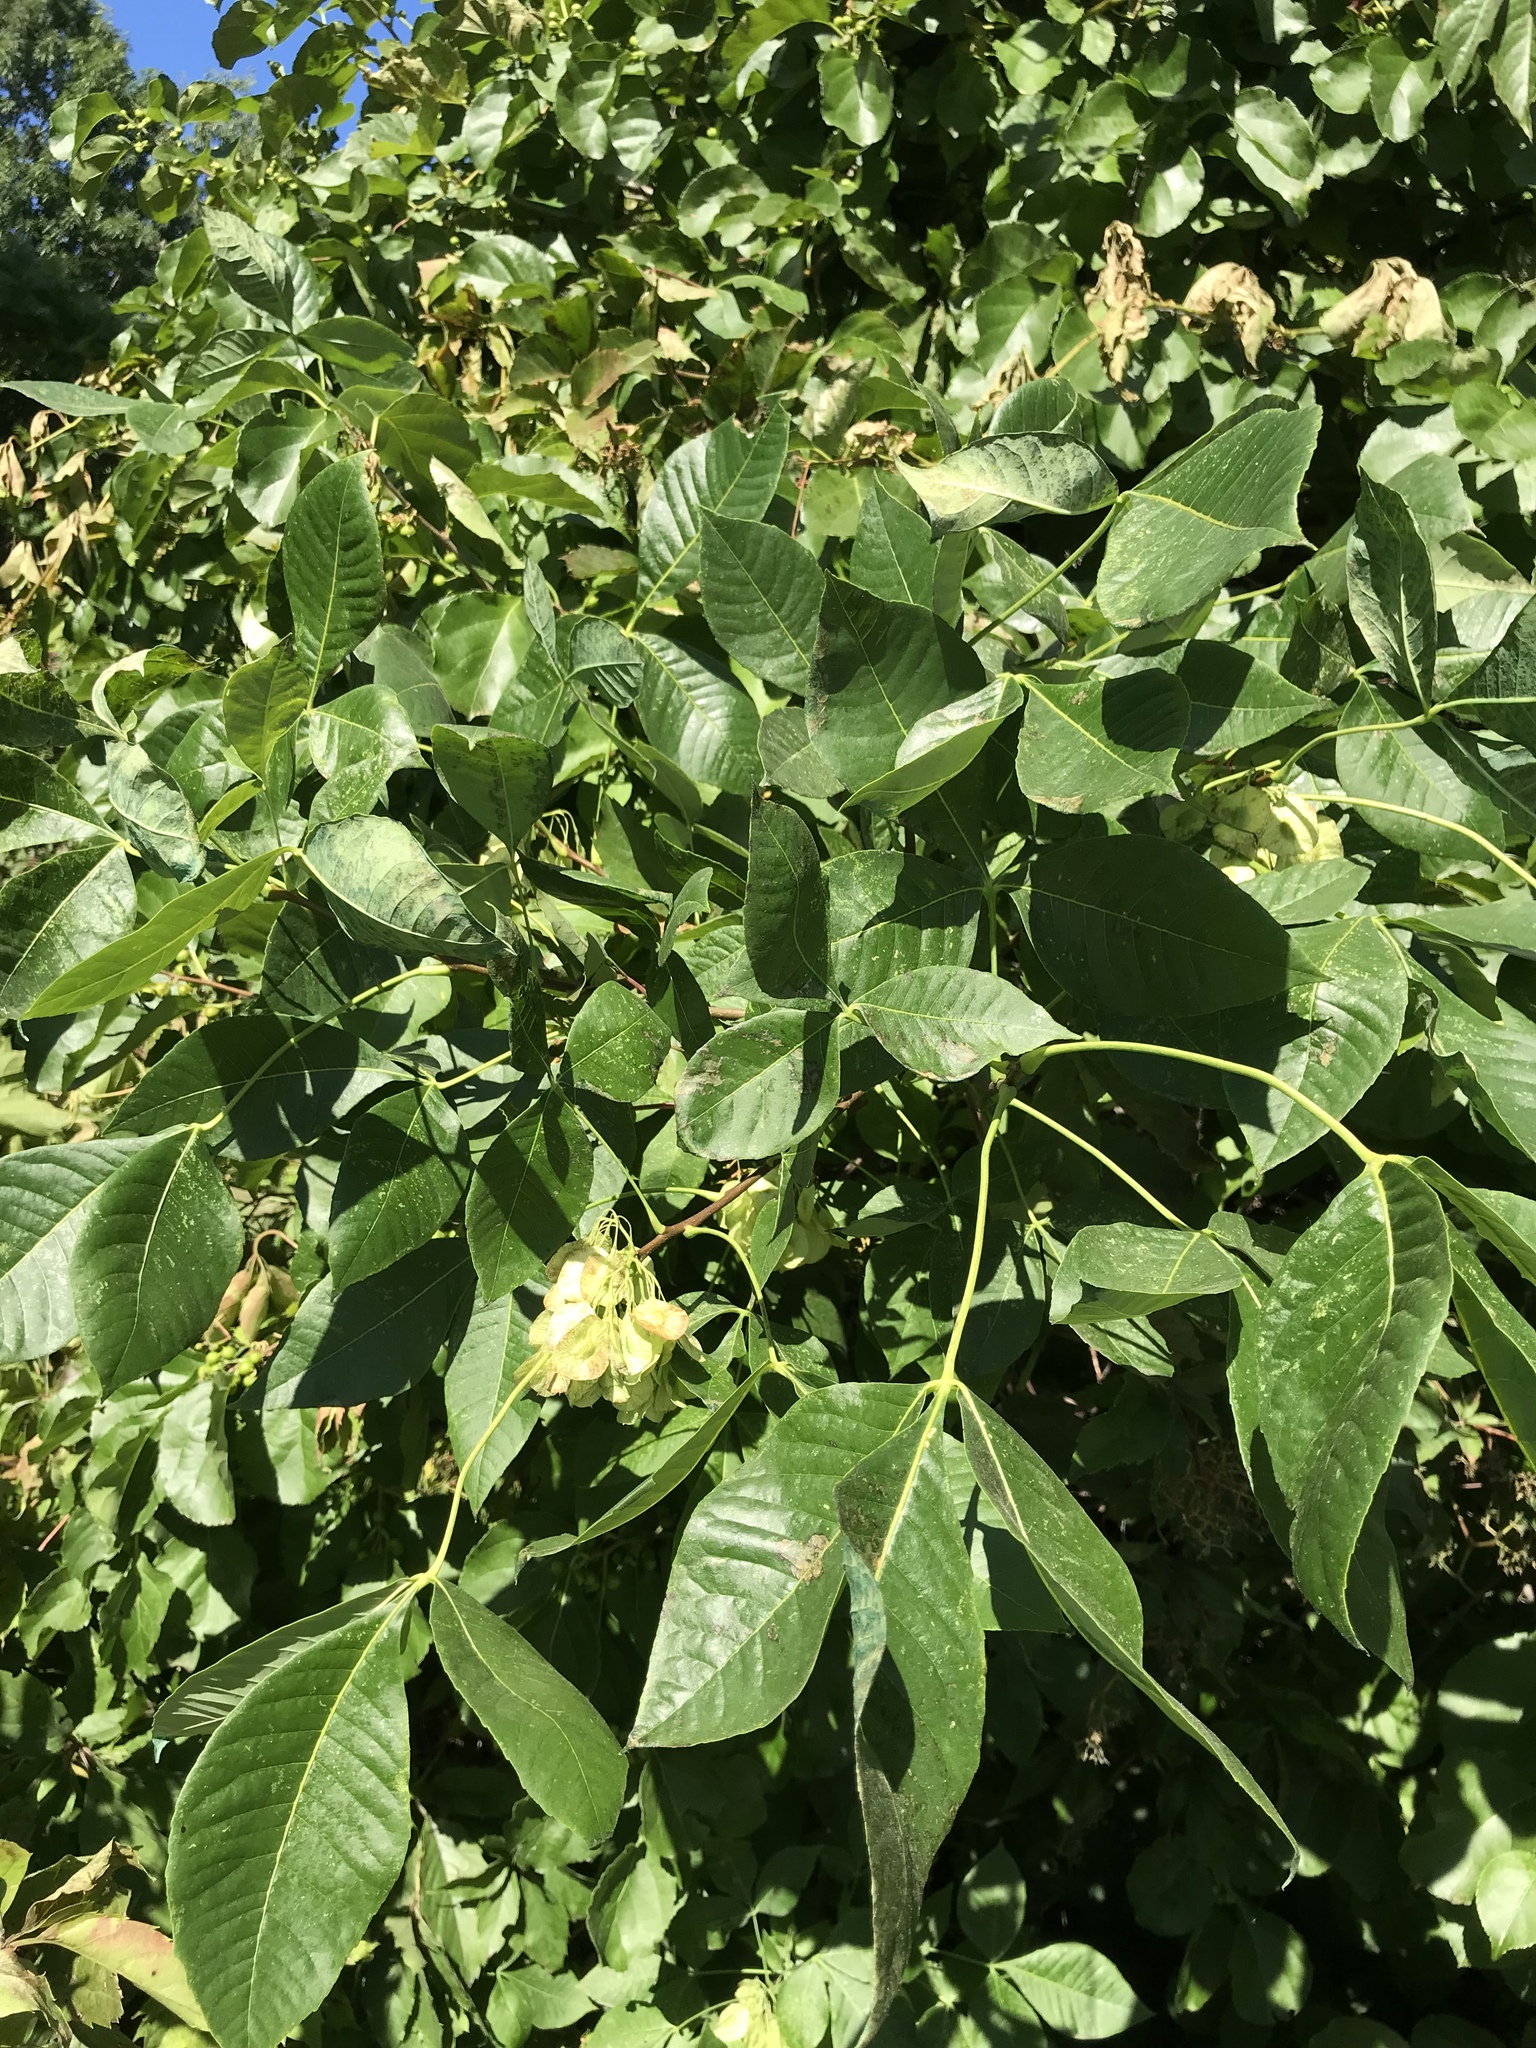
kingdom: Plantae
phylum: Tracheophyta
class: Magnoliopsida
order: Sapindales
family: Rutaceae
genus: Ptelea
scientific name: Ptelea trifoliata
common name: Common hop-tree
